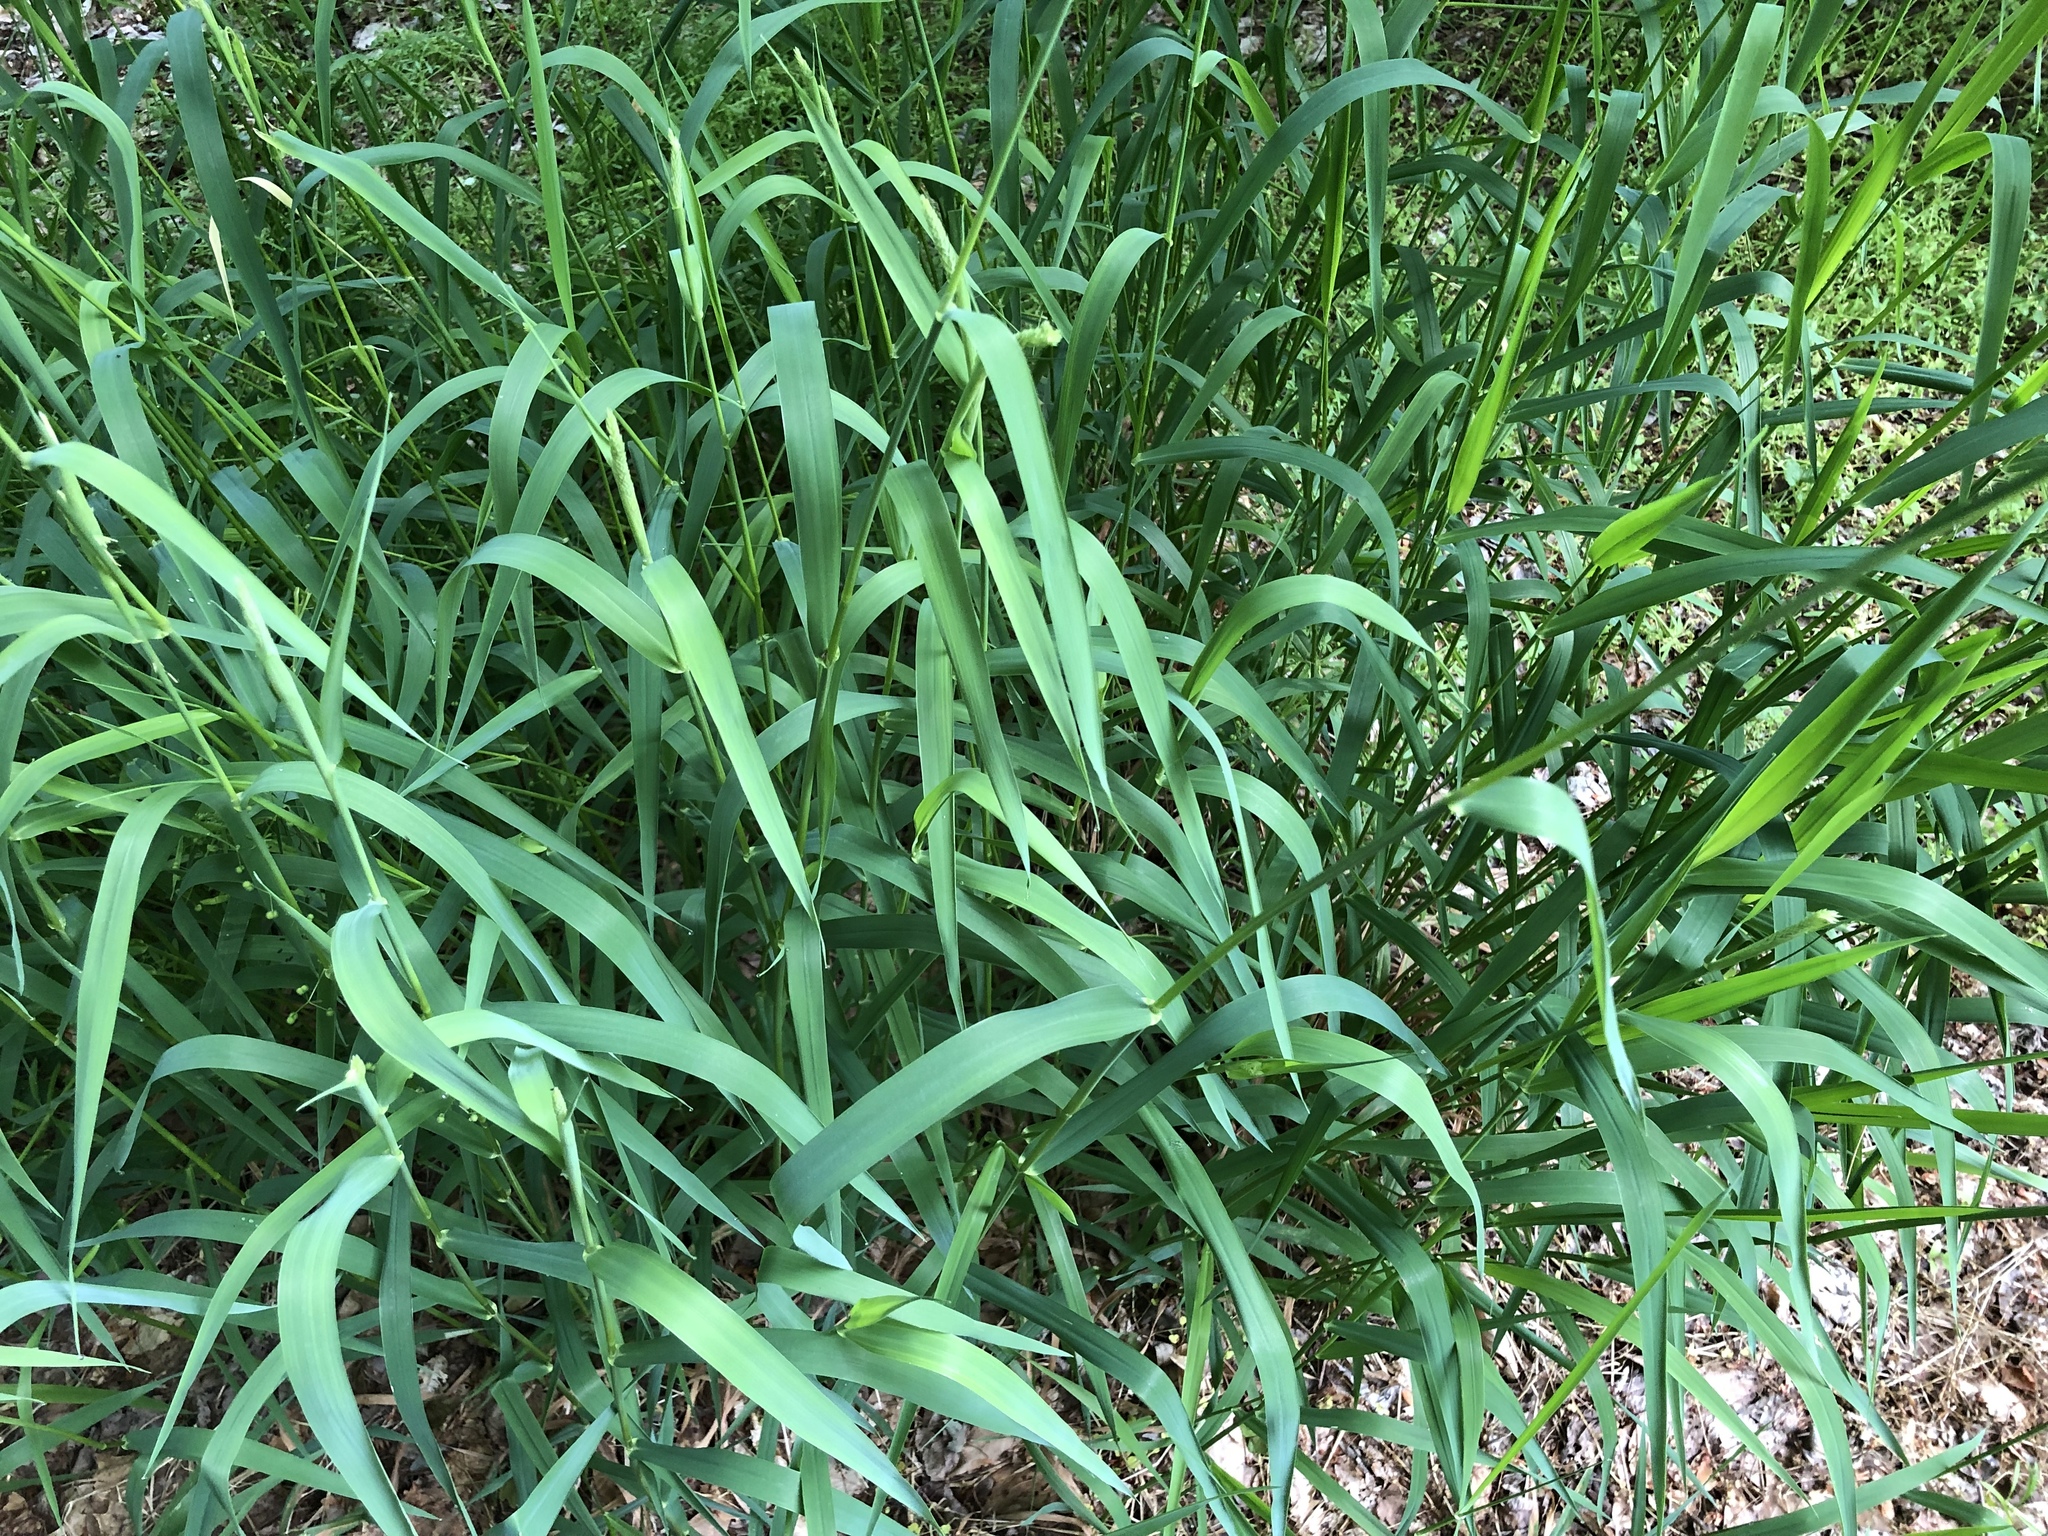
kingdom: Plantae
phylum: Tracheophyta
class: Liliopsida
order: Poales
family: Poaceae
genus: Phalaris
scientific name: Phalaris arundinacea
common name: Reed canary-grass
